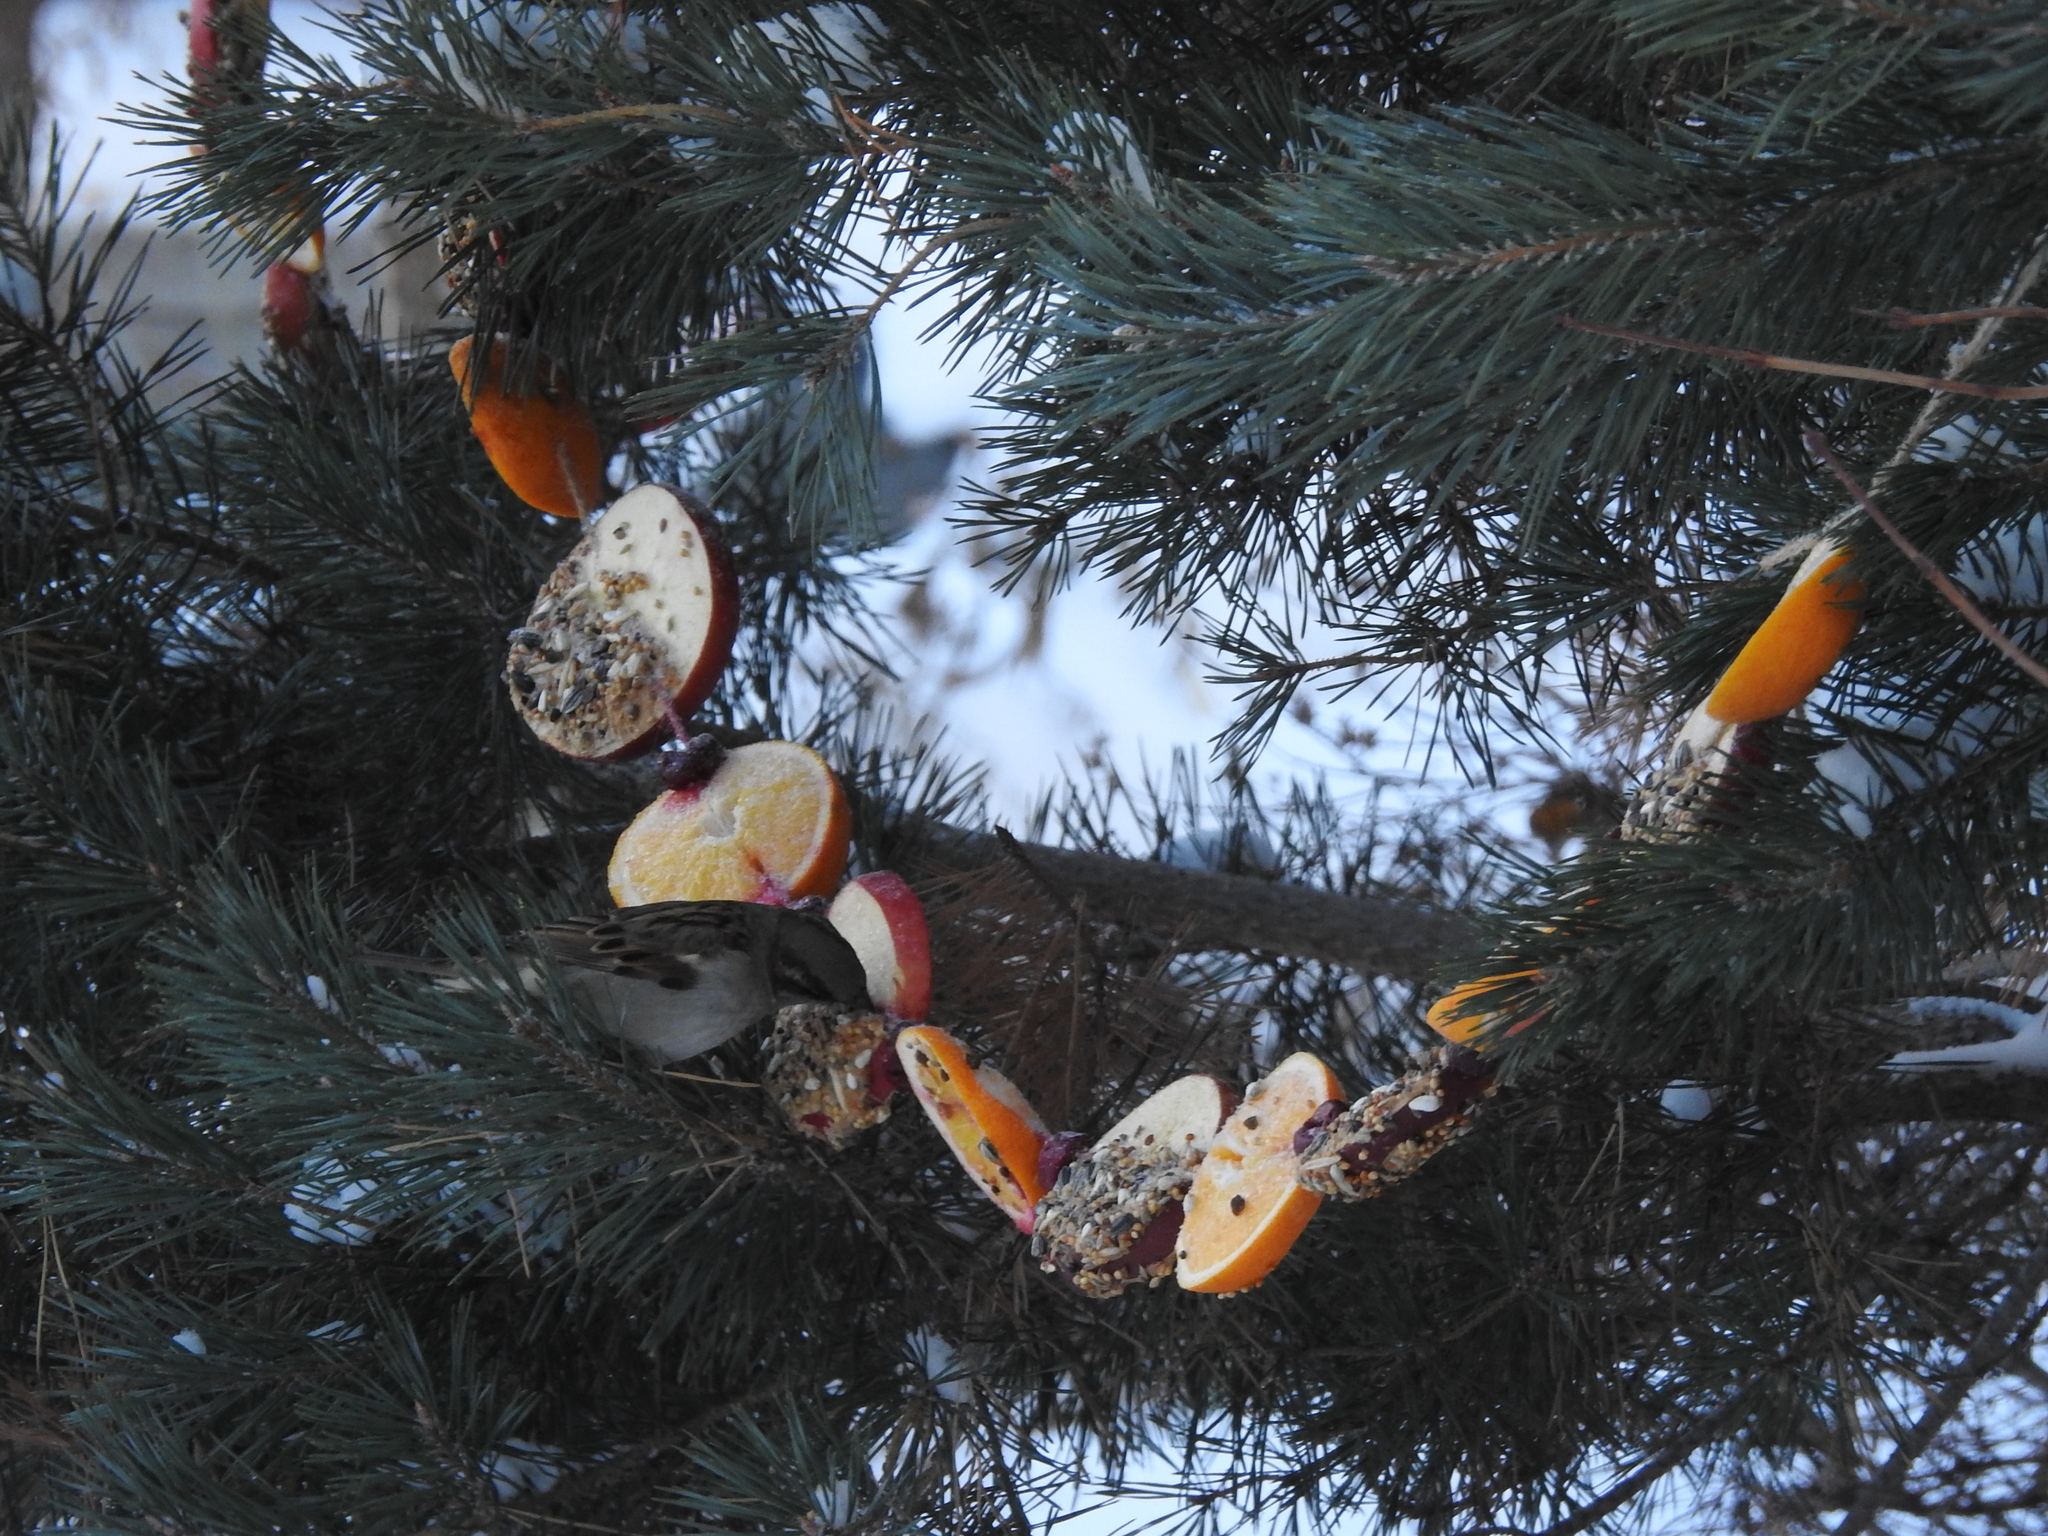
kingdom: Animalia
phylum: Chordata
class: Aves
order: Passeriformes
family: Passeridae
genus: Passer
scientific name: Passer domesticus
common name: House sparrow
